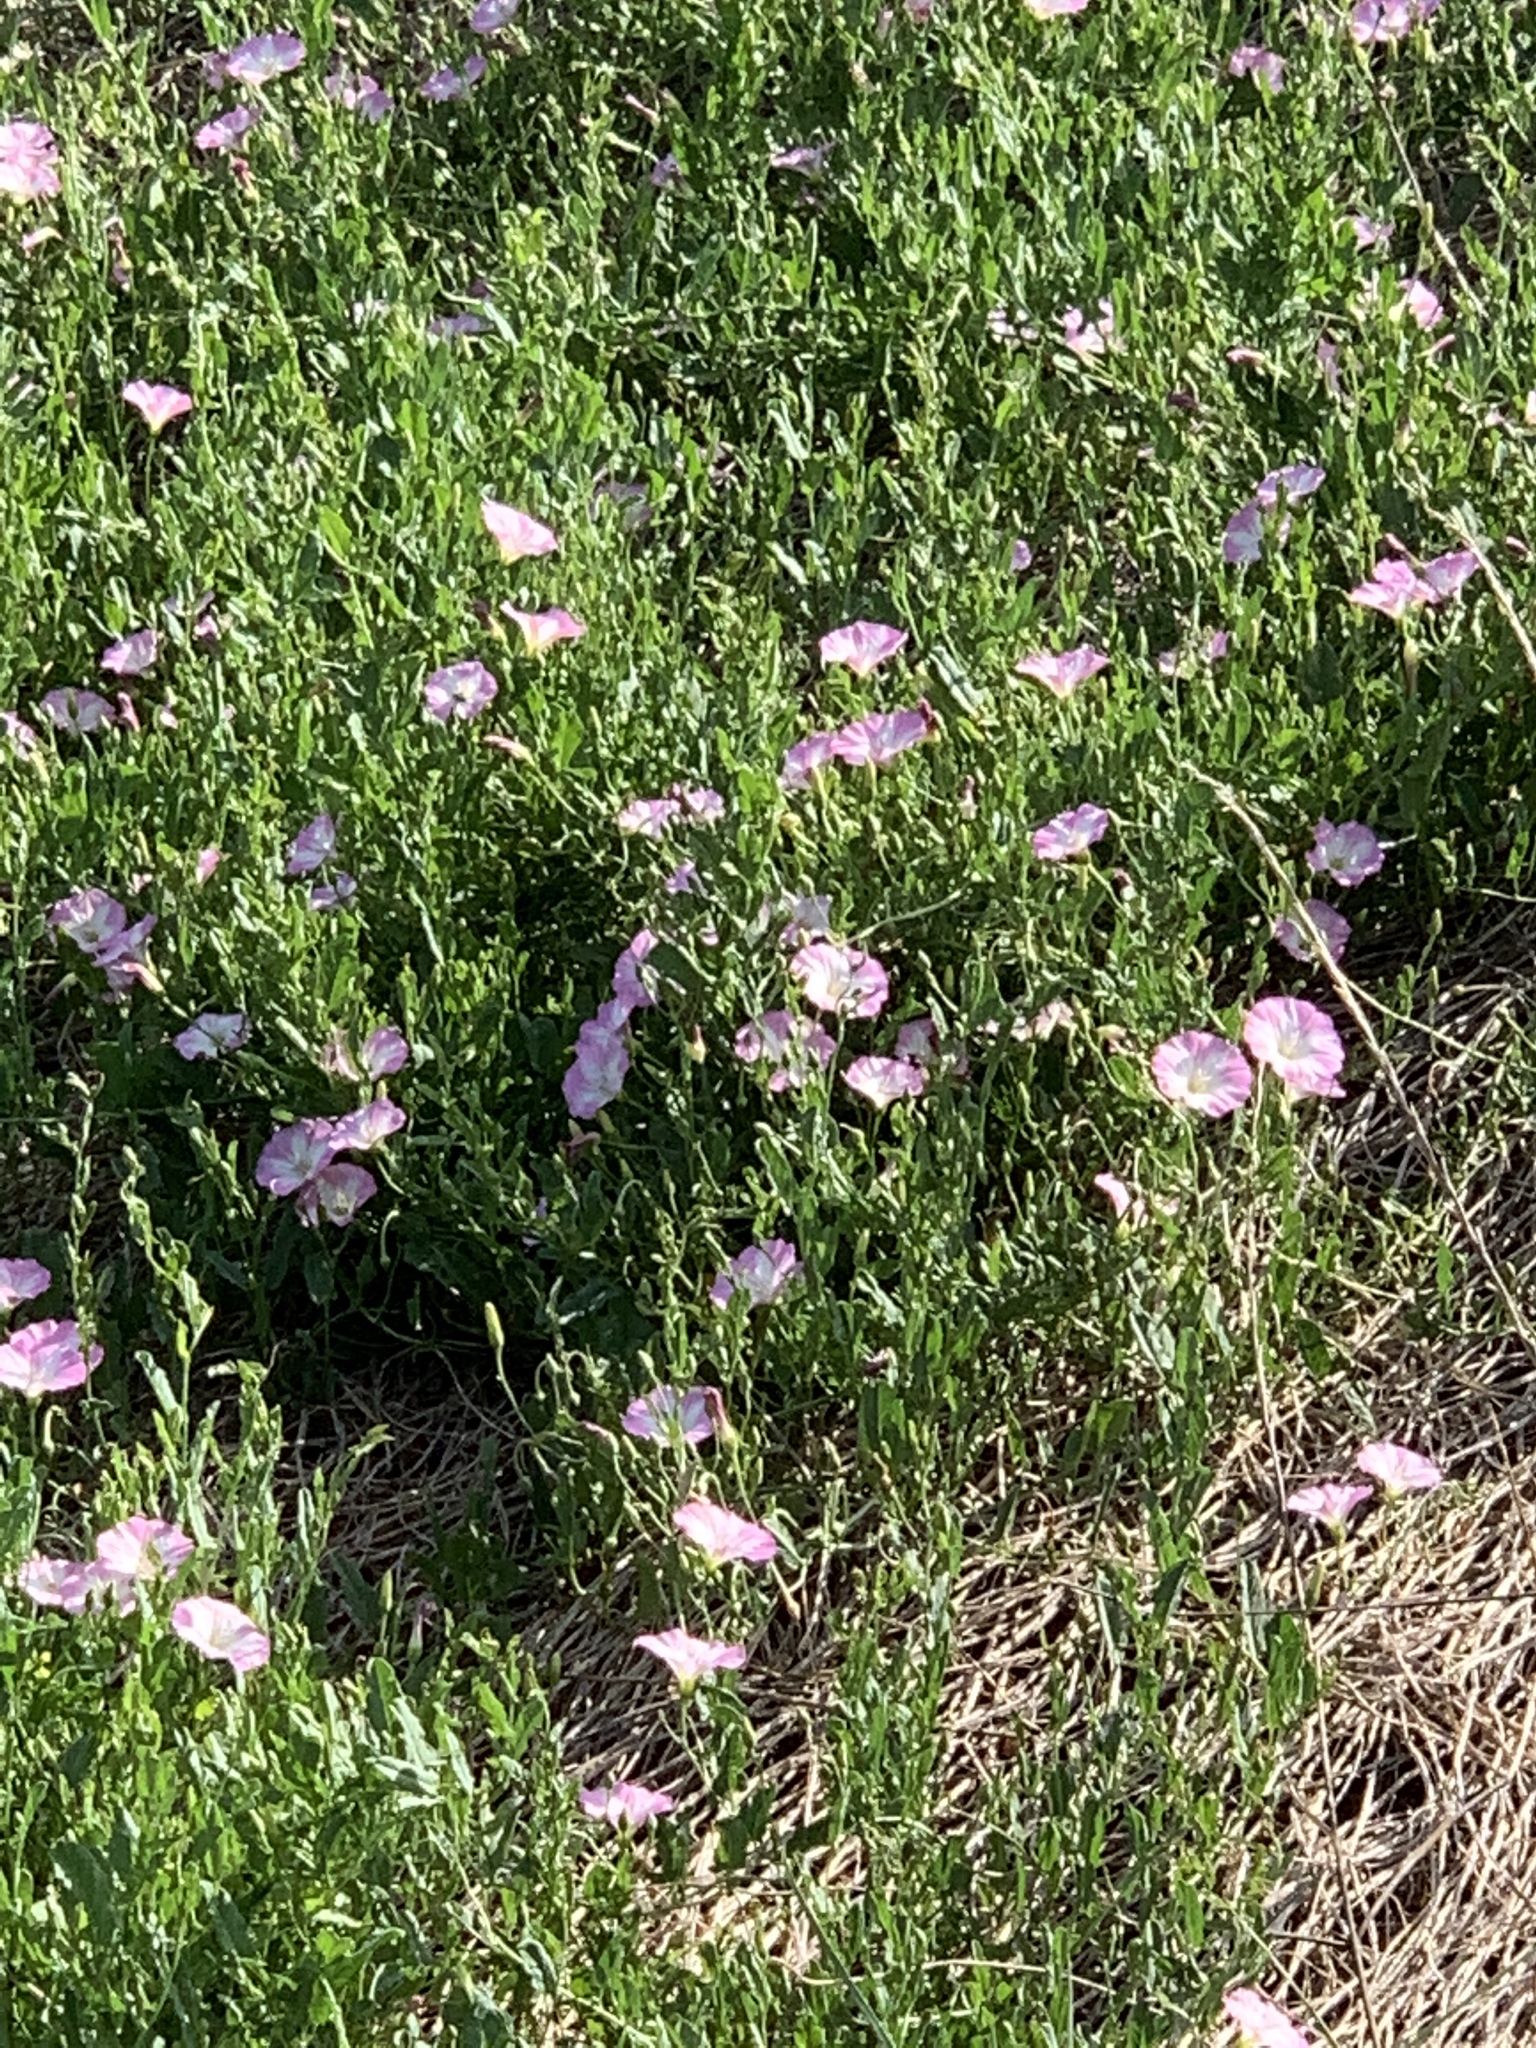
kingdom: Plantae
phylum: Tracheophyta
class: Magnoliopsida
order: Solanales
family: Convolvulaceae
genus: Convolvulus
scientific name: Convolvulus arvensis
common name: Field bindweed
